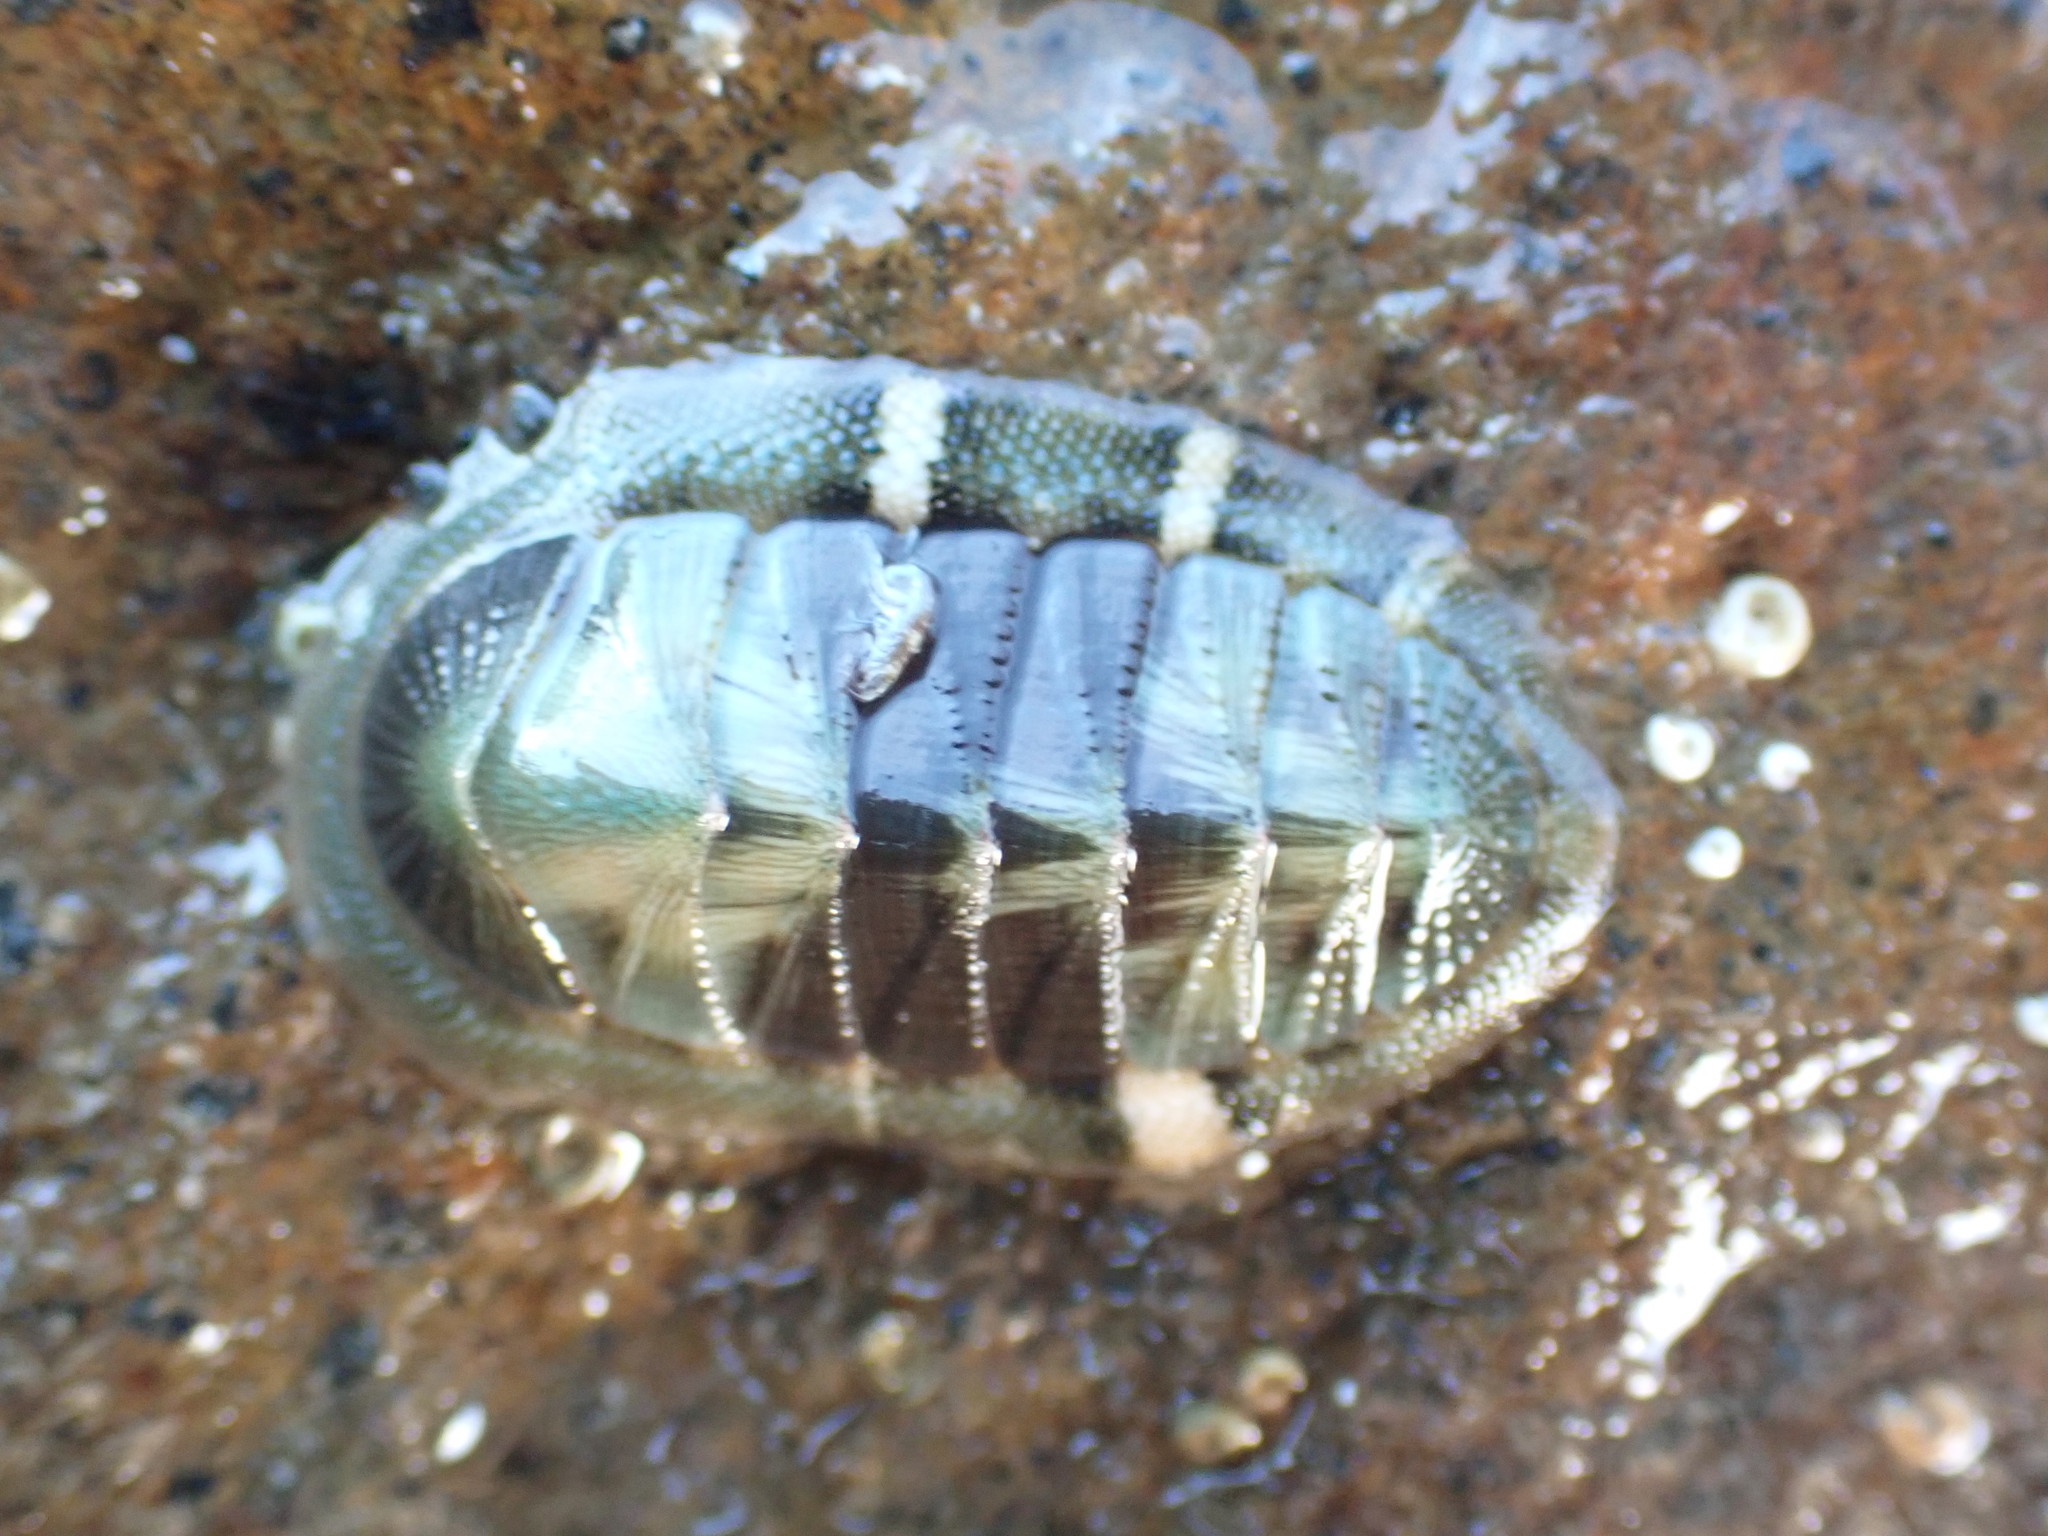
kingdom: Animalia
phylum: Mollusca
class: Polyplacophora
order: Chitonida
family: Chitonidae
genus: Rhyssoplax
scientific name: Rhyssoplax aerea
